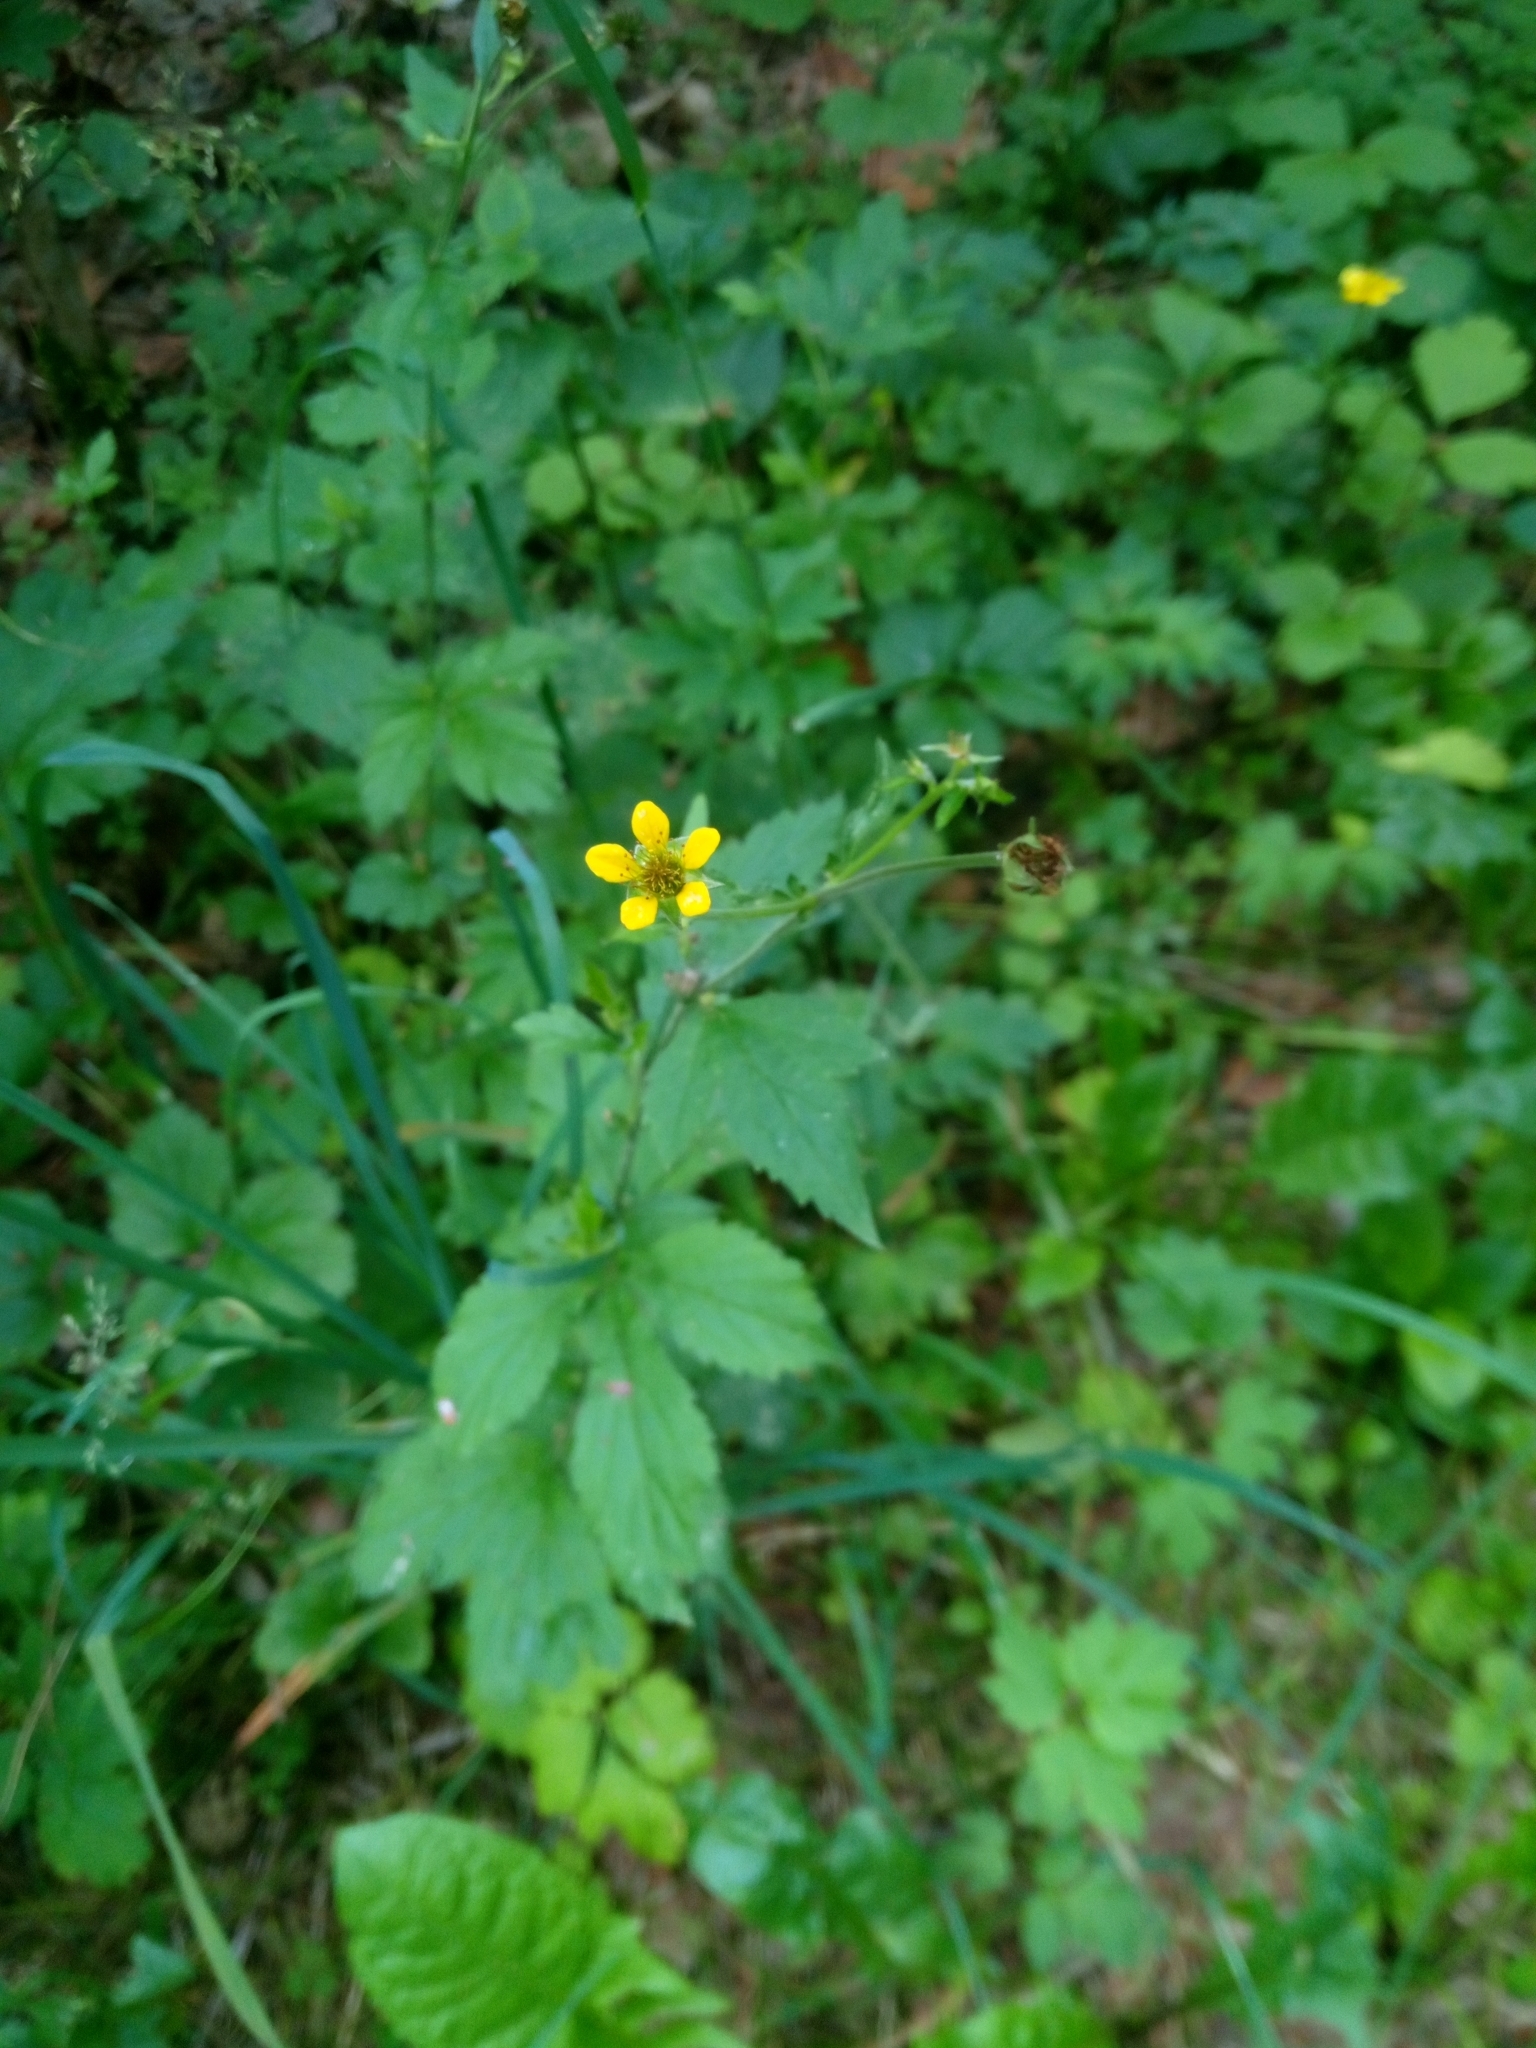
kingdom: Plantae
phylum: Tracheophyta
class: Magnoliopsida
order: Rosales
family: Rosaceae
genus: Geum
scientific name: Geum urbanum
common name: Wood avens
